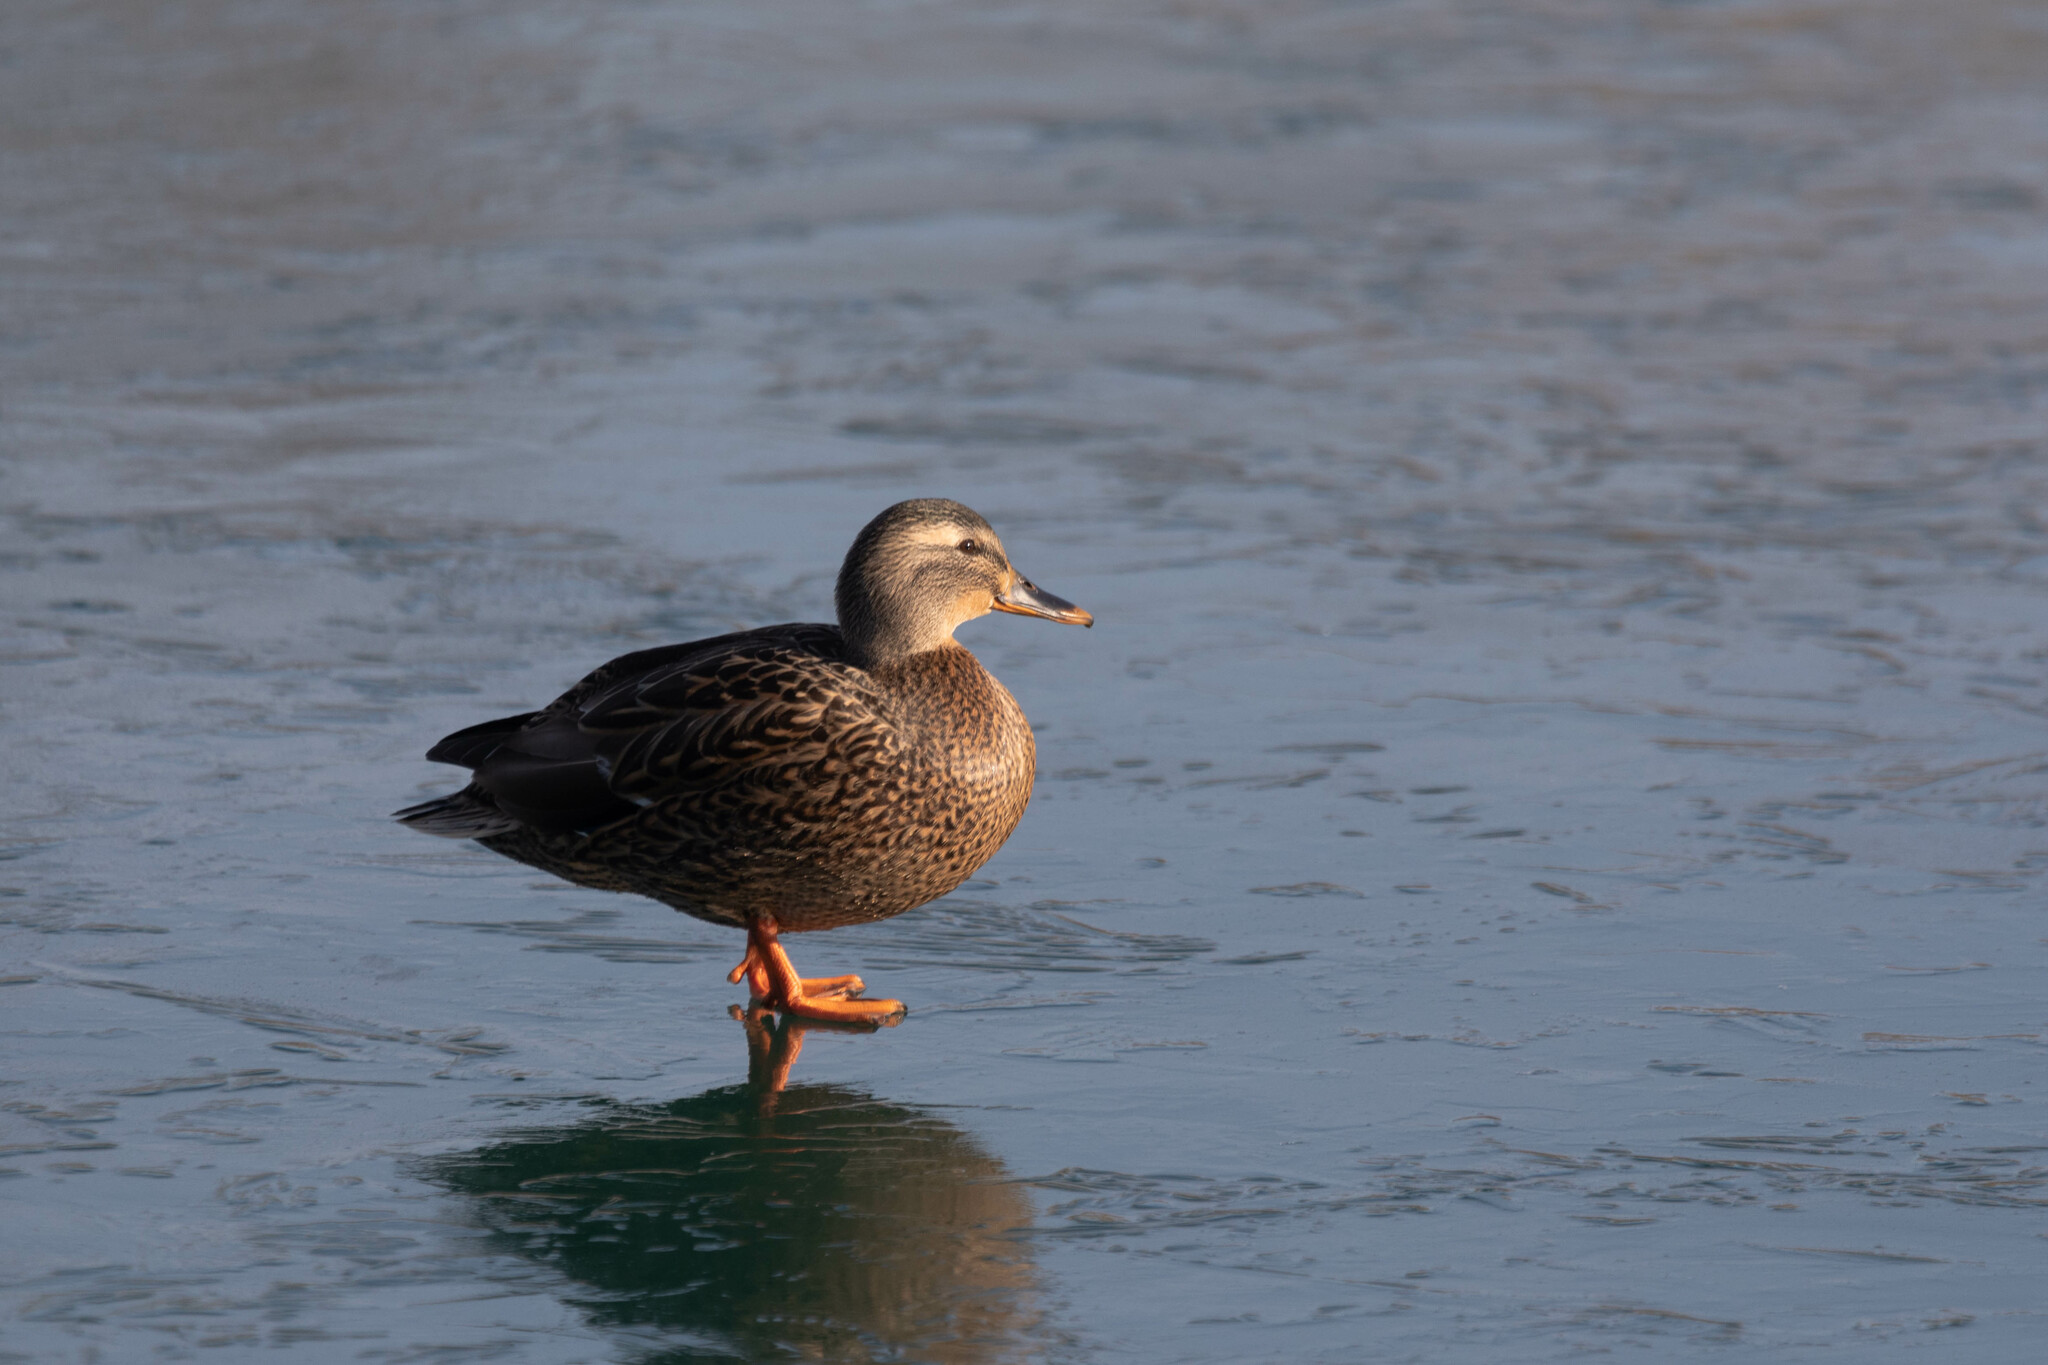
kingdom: Animalia
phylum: Chordata
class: Aves
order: Anseriformes
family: Anatidae
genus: Anas
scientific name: Anas platyrhynchos
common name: Mallard
